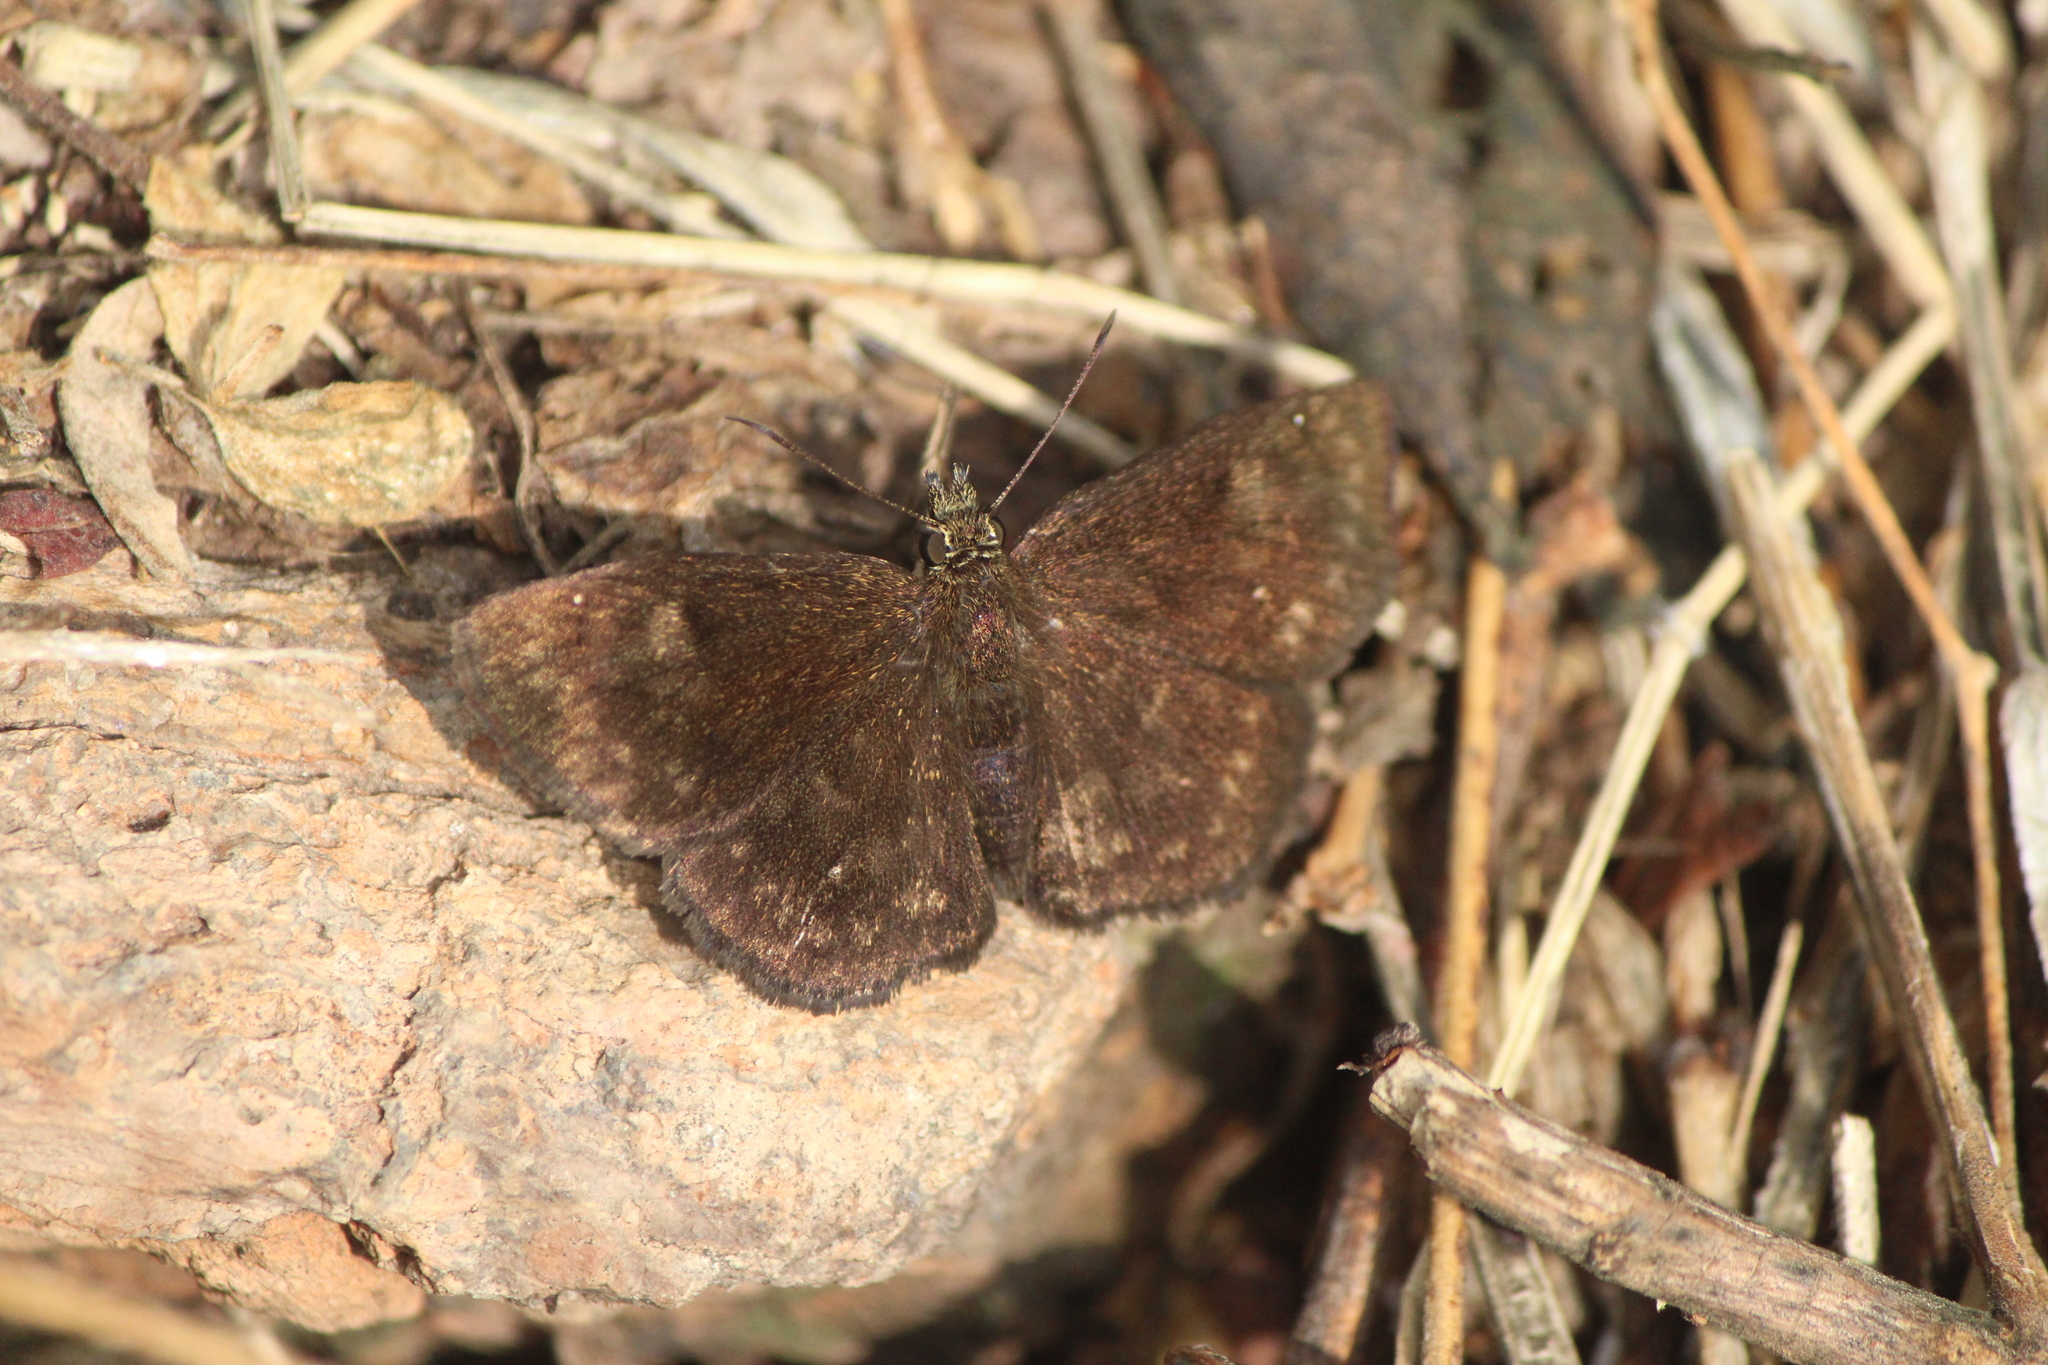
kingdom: Animalia
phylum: Arthropoda
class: Insecta
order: Lepidoptera
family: Hesperiidae
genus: Bolla
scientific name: Bolla subapicatus
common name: Pine-oak bolla
